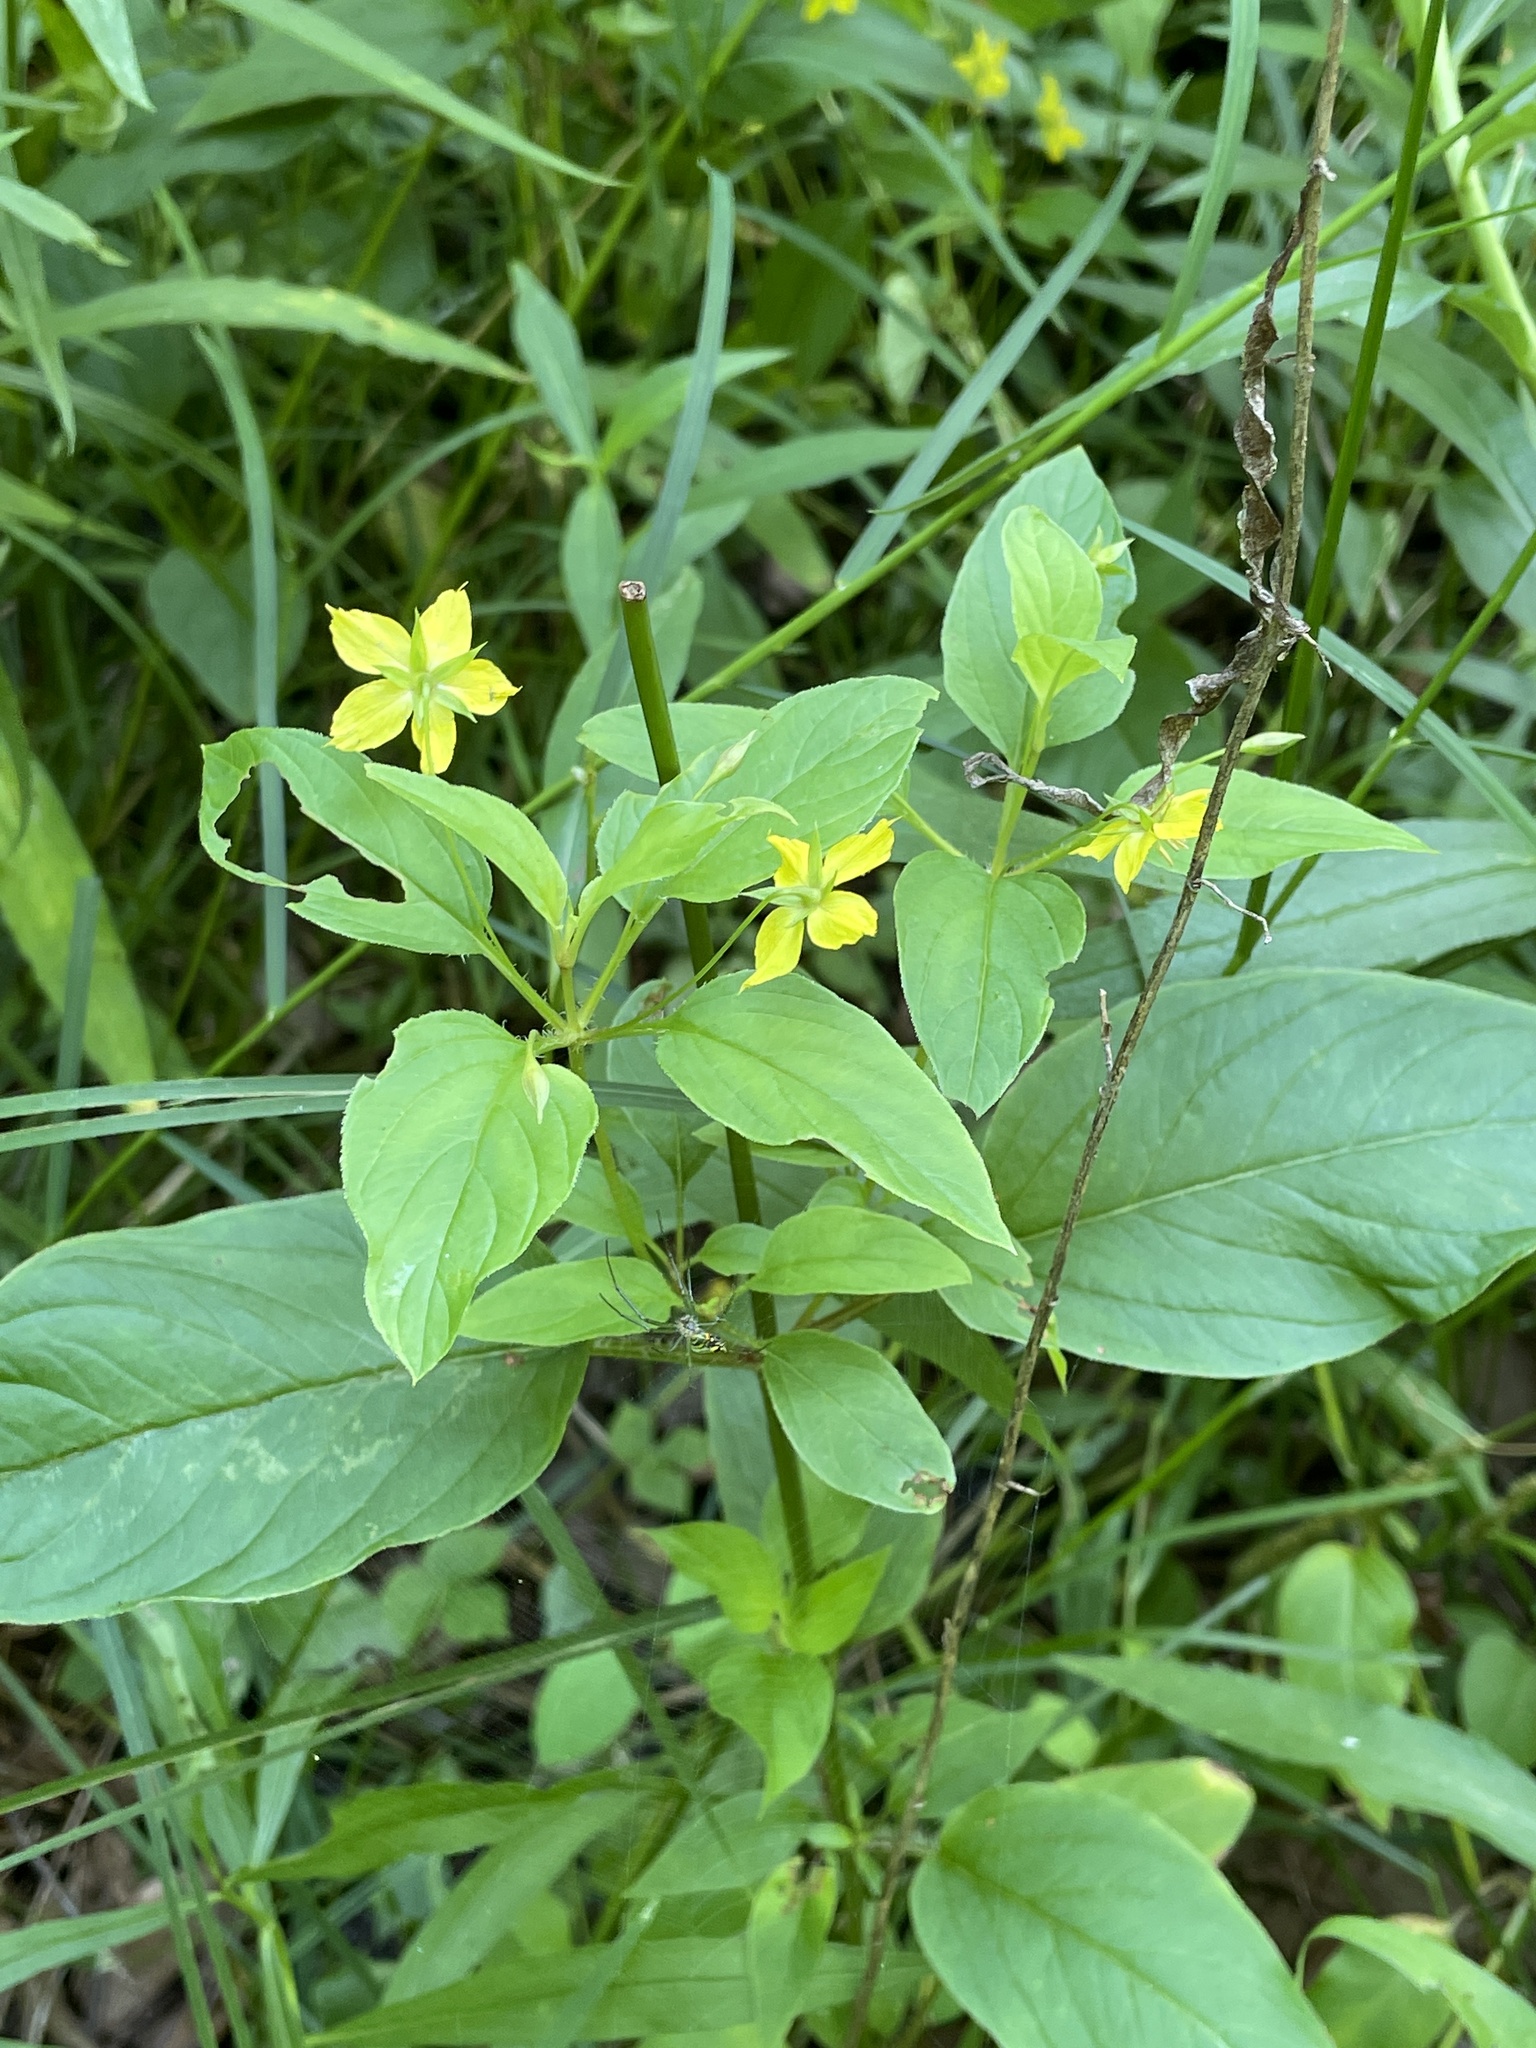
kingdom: Plantae
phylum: Tracheophyta
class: Magnoliopsida
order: Ericales
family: Primulaceae
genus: Lysimachia
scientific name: Lysimachia ciliata
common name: Fringed loosestrife
